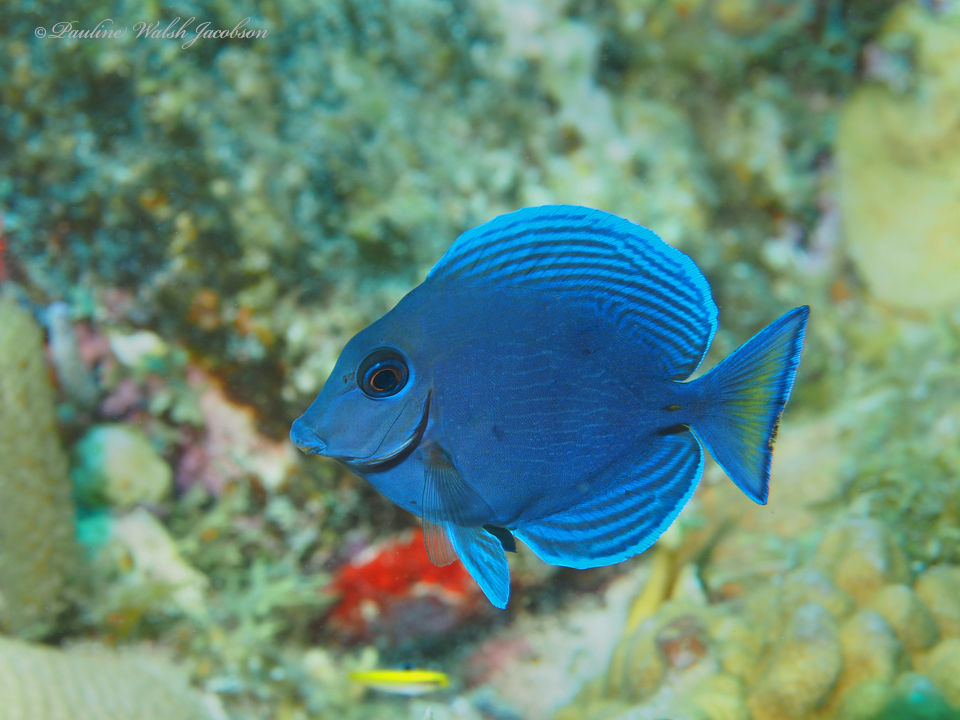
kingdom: Animalia
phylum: Chordata
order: Perciformes
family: Acanthuridae
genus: Acanthurus
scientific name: Acanthurus coeruleus
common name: Blue tang
